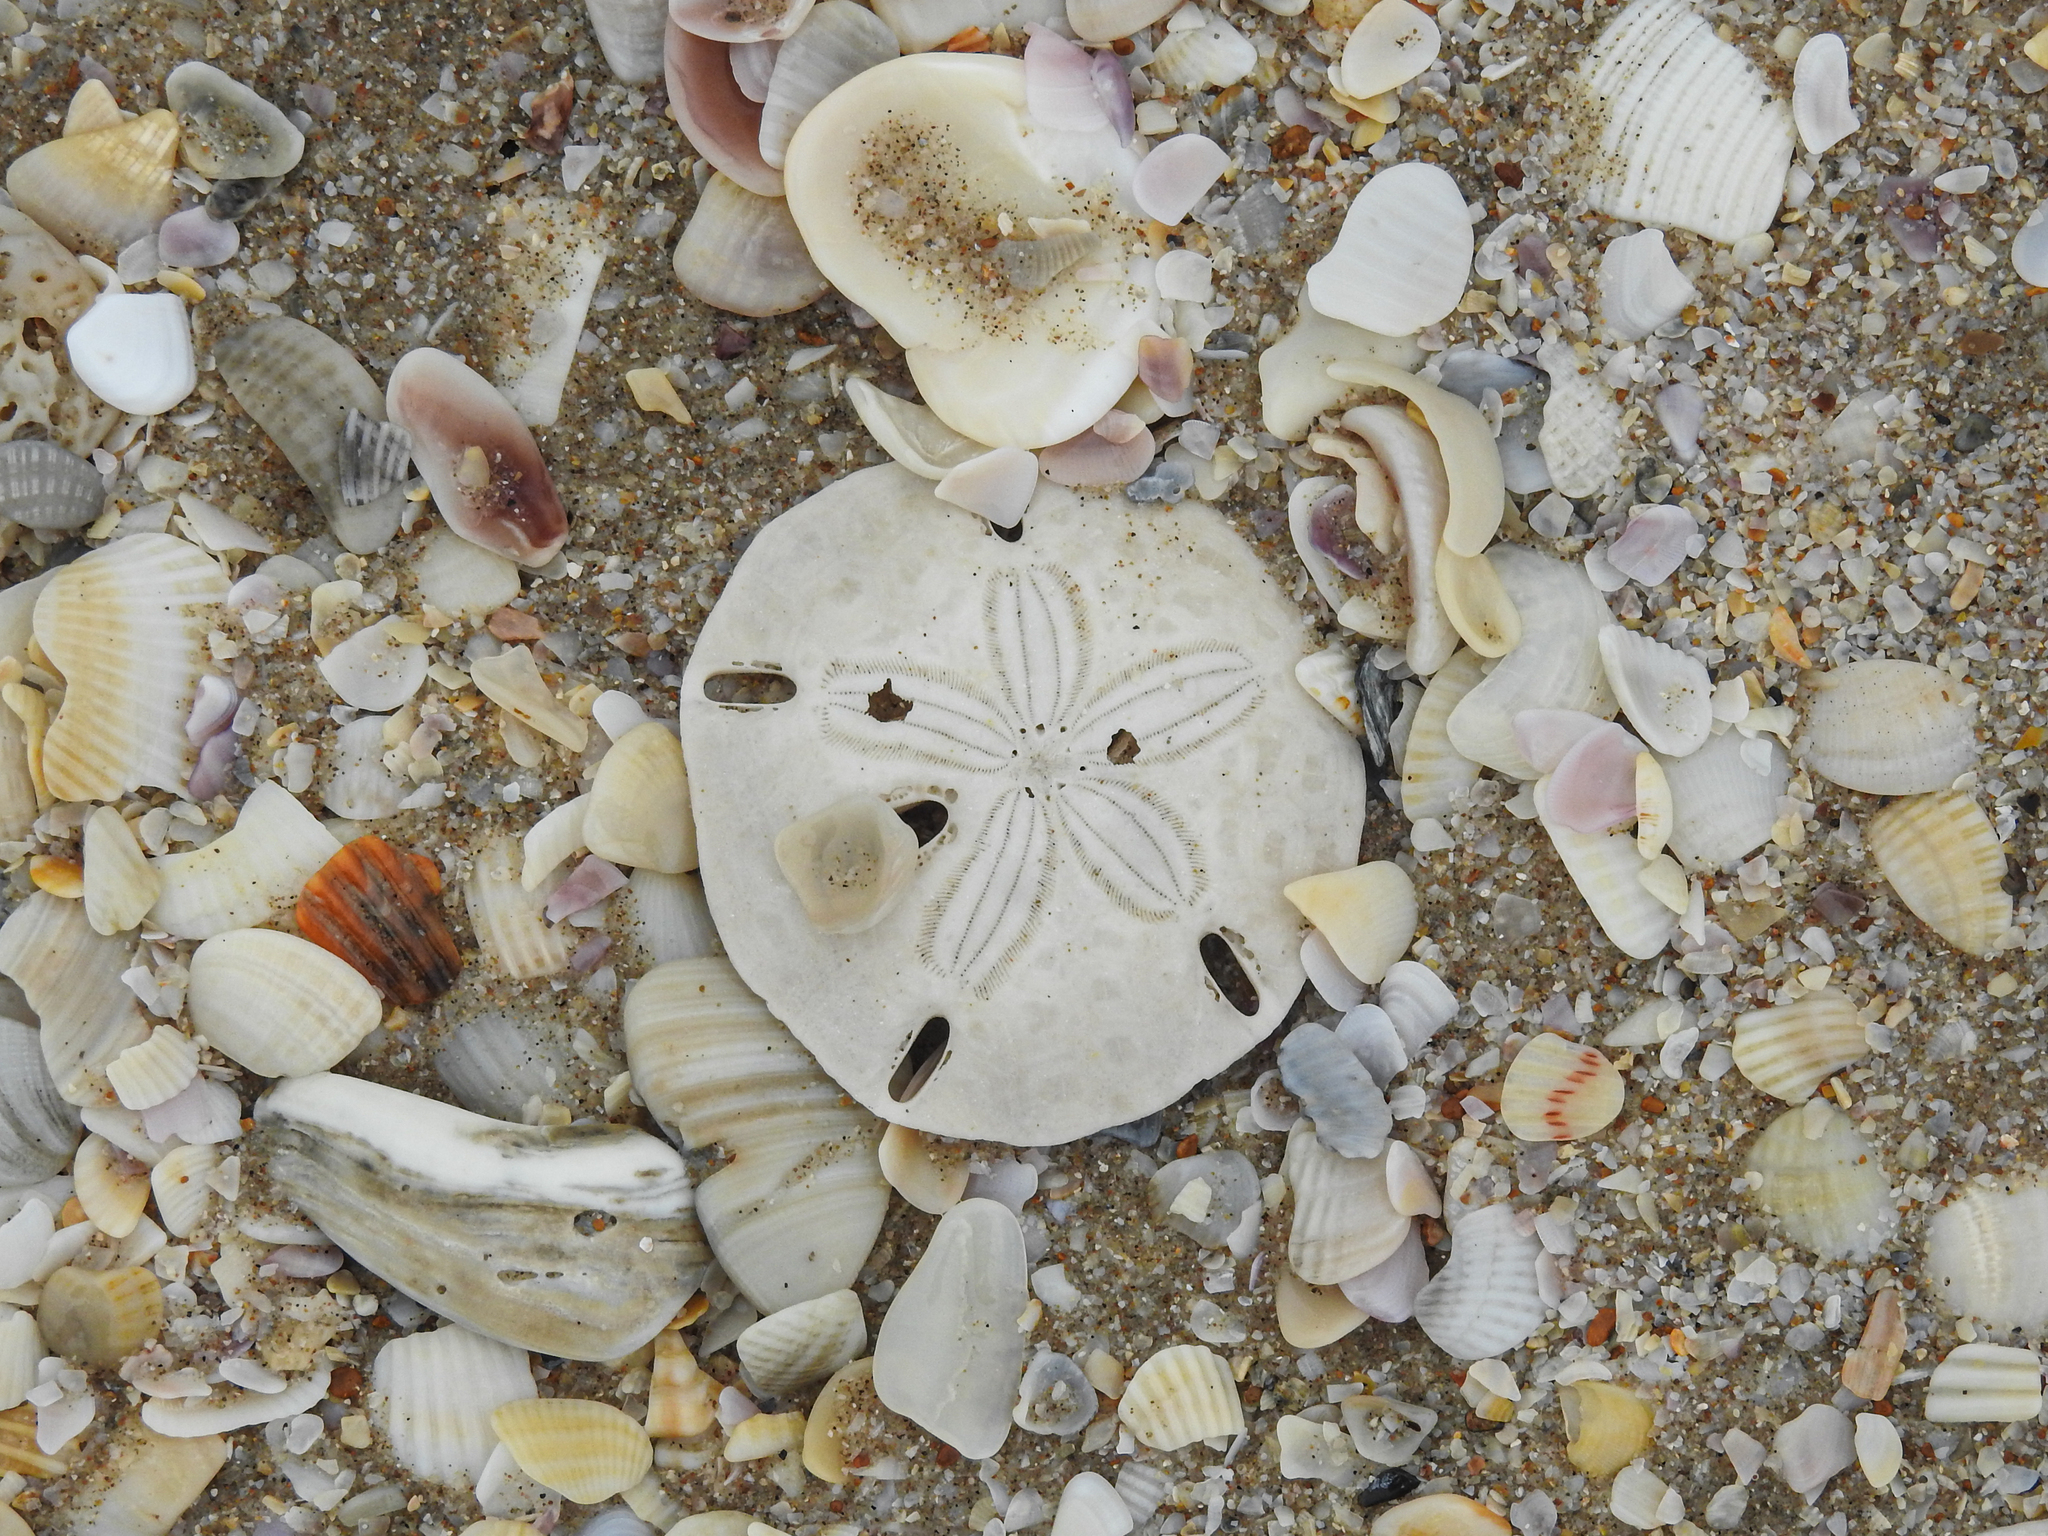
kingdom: Animalia
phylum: Echinodermata
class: Echinoidea
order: Echinolampadacea
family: Mellitidae
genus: Mellita
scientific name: Mellita quinquiesperforata
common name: Sand dollar
